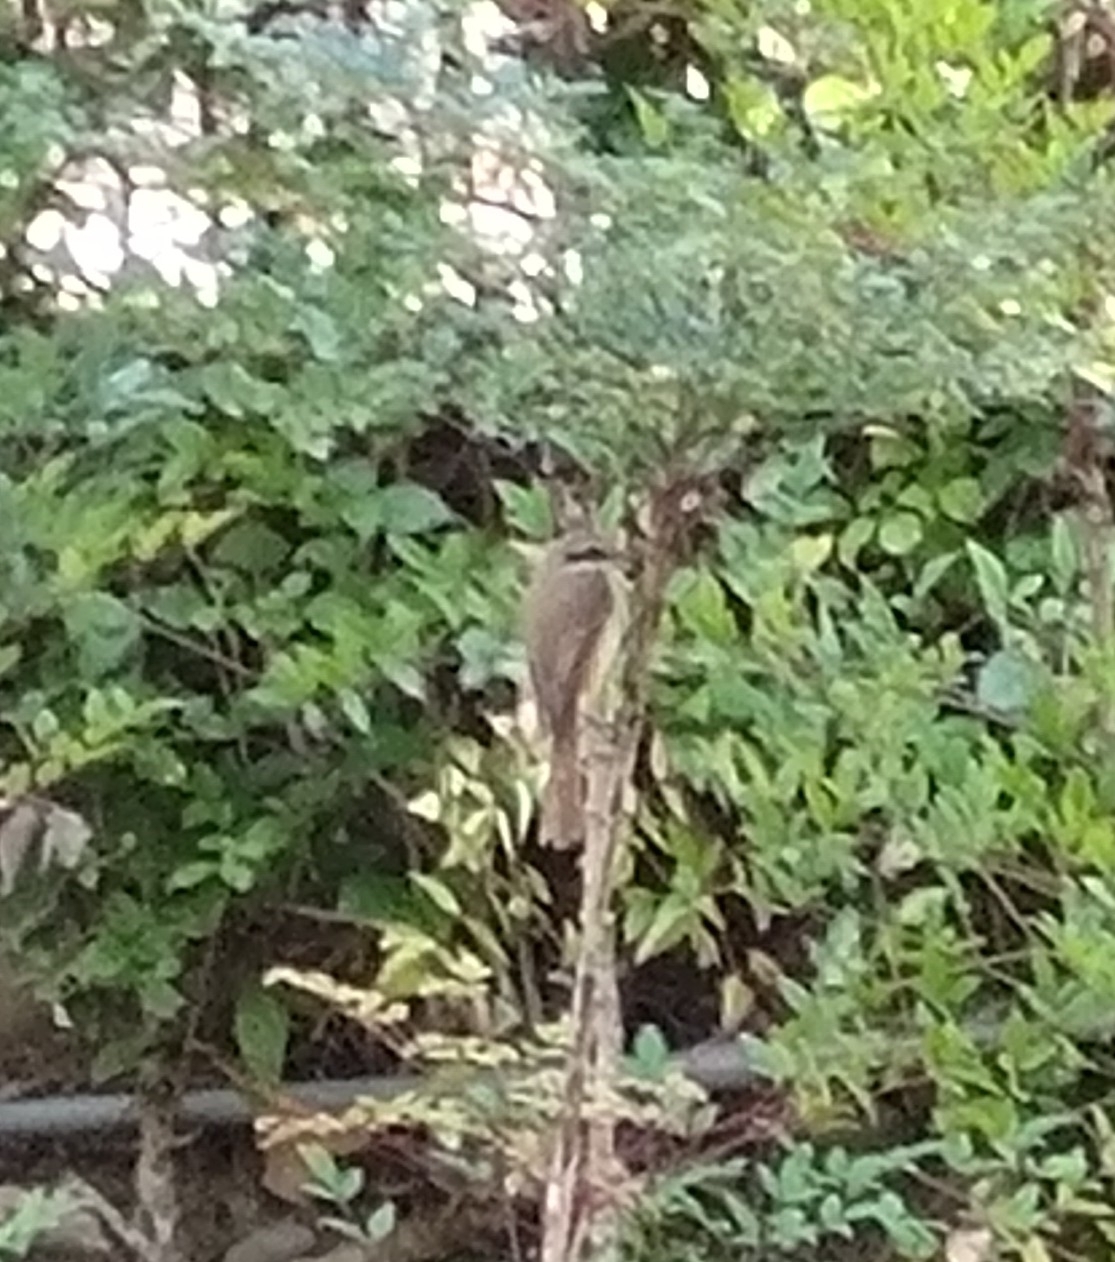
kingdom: Animalia
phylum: Chordata
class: Aves
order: Passeriformes
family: Laniidae
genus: Lanius
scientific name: Lanius cristatus
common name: Brown shrike
